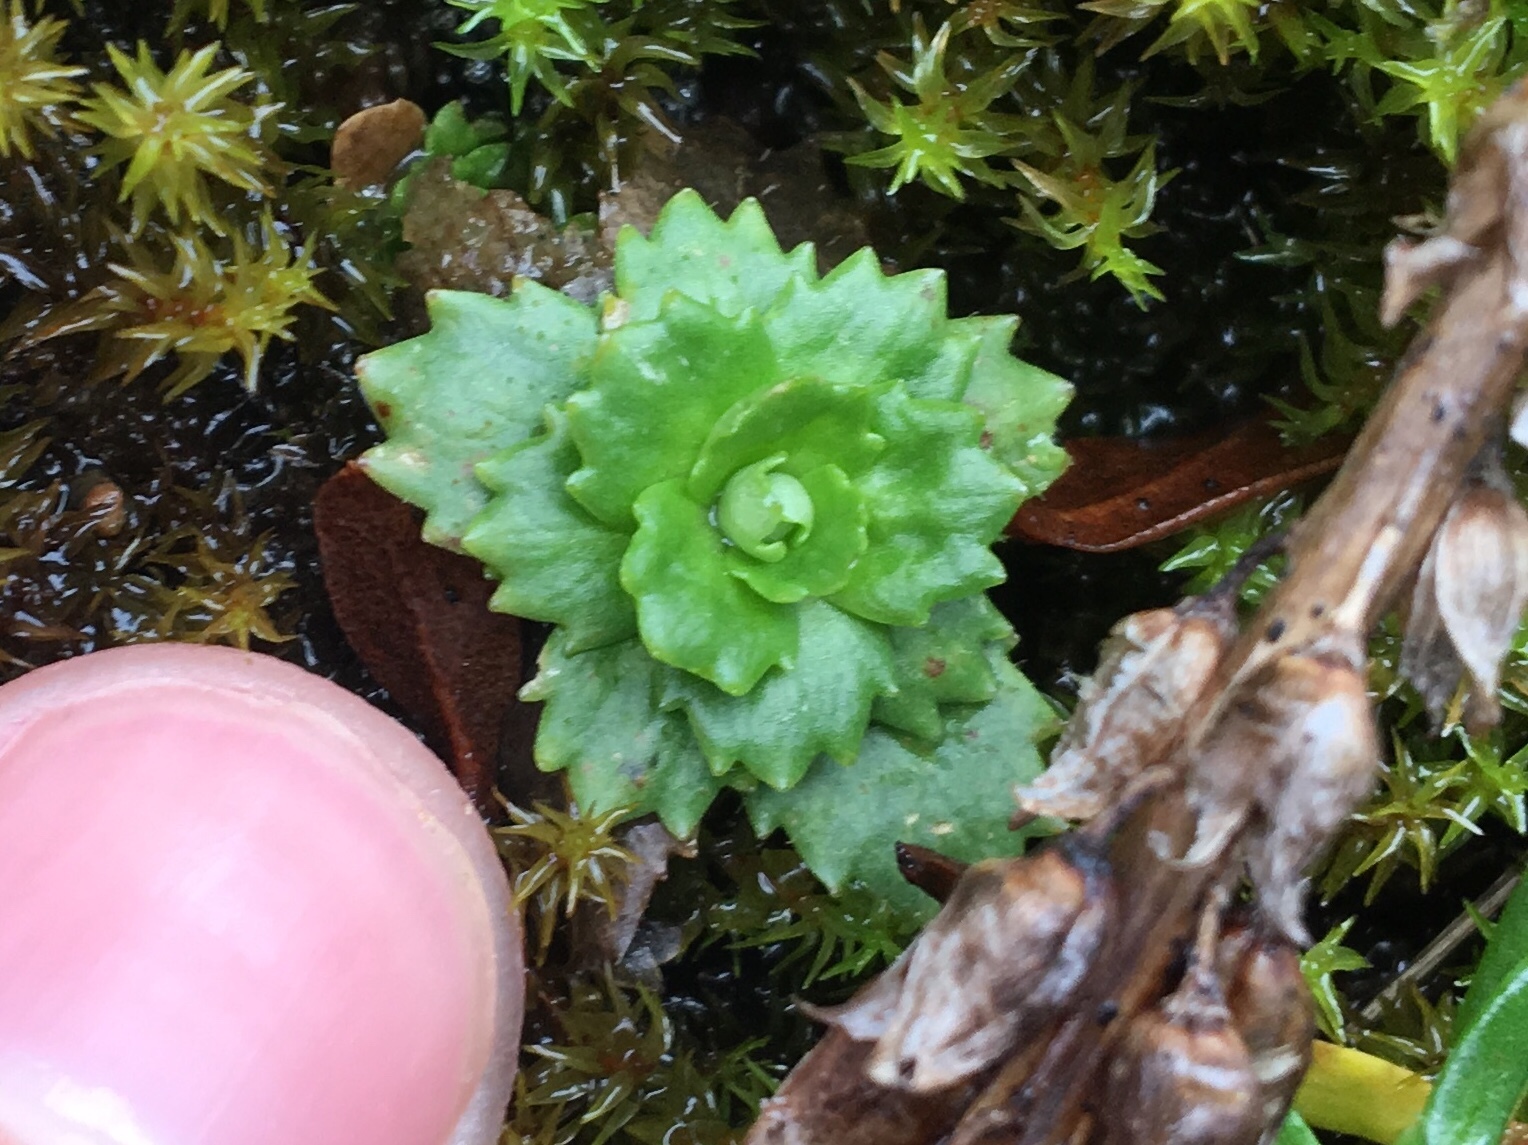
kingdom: Plantae
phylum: Tracheophyta
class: Magnoliopsida
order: Saxifragales
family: Saxifragaceae
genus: Micranthes
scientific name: Micranthes stellaris
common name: Starry saxifrage
